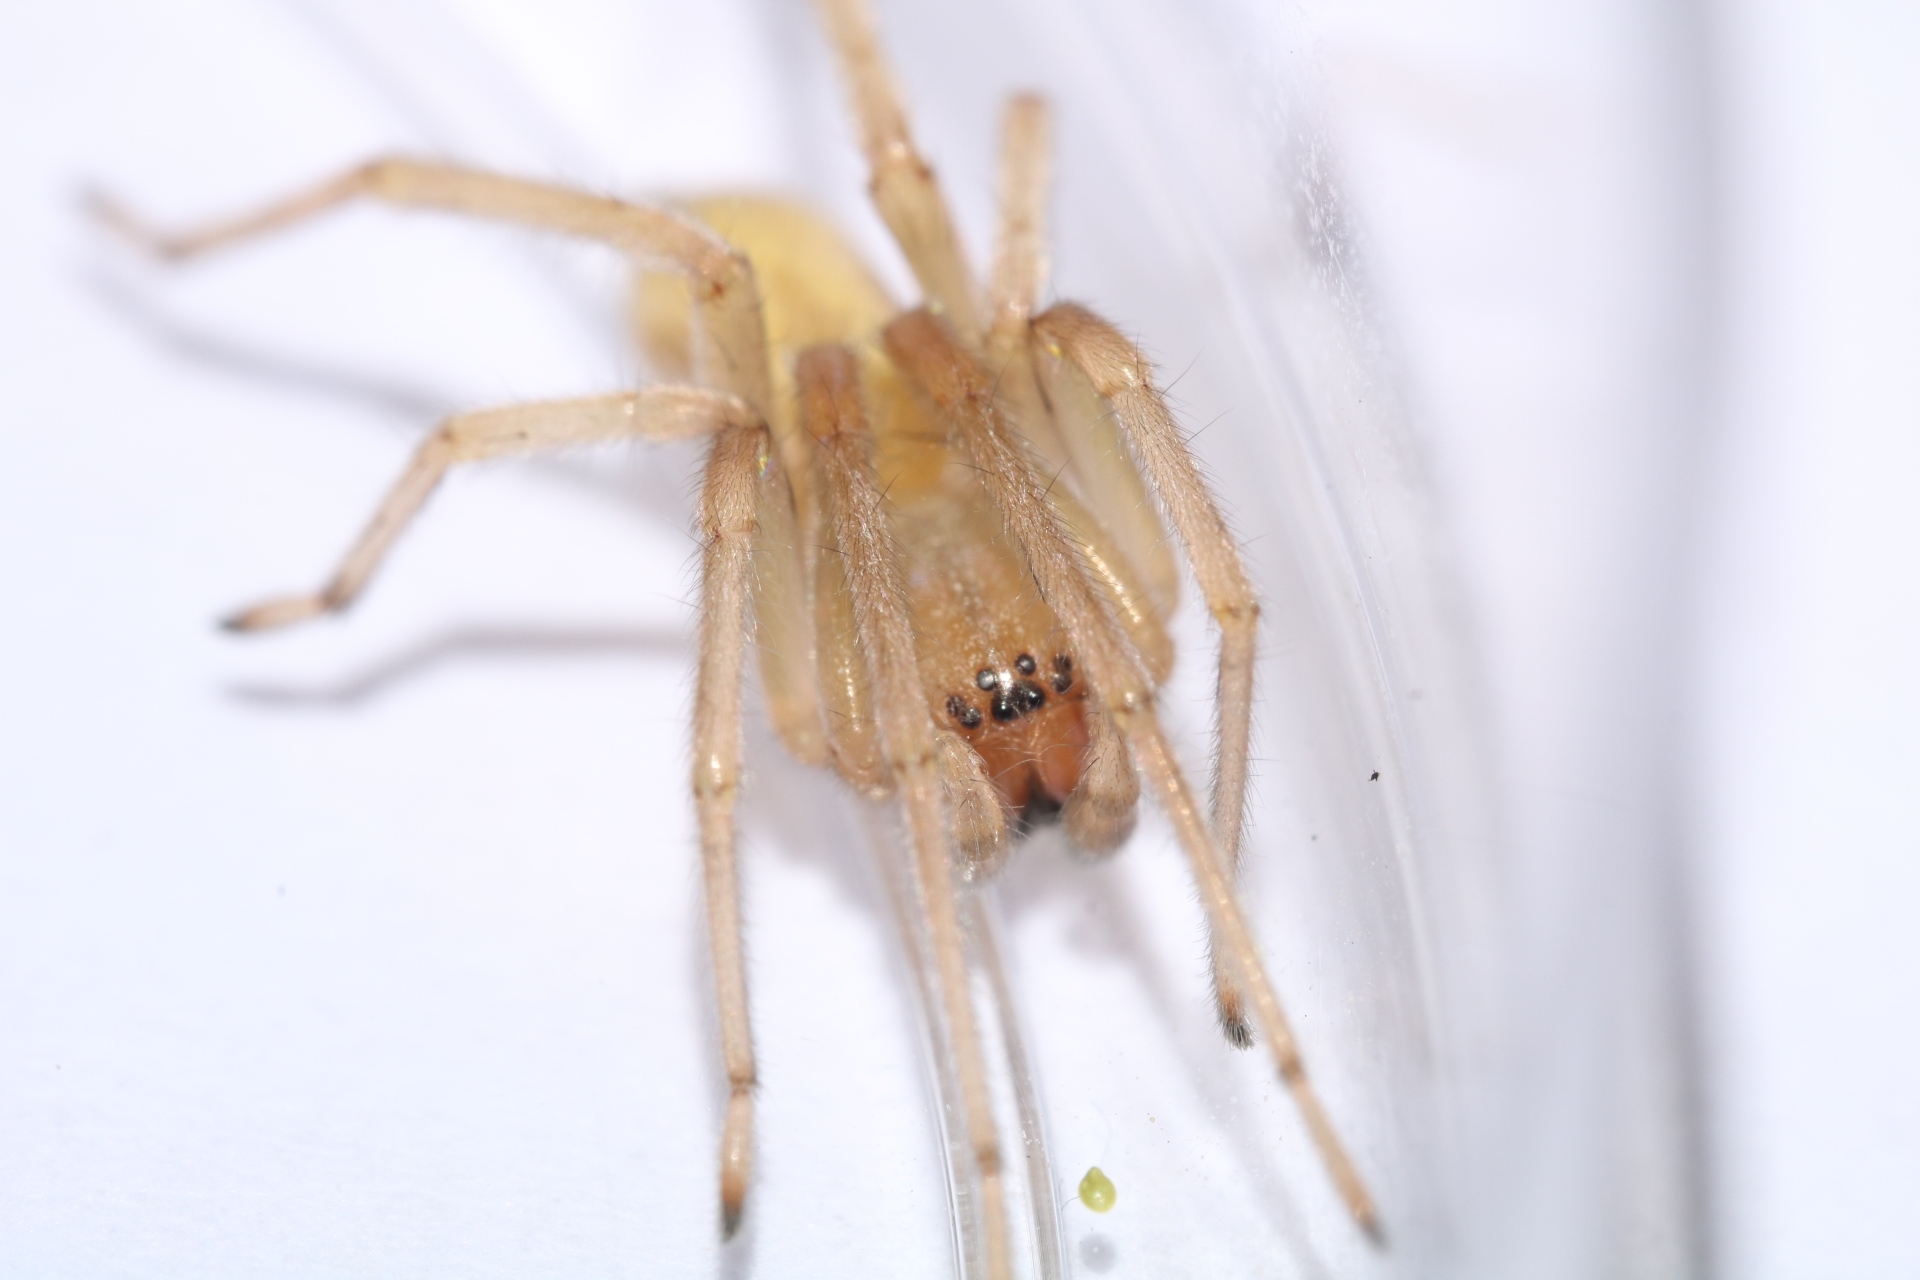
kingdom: Animalia
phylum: Arthropoda
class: Arachnida
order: Araneae
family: Cheiracanthiidae
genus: Cheiracanthium
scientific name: Cheiracanthium mildei
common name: Northern yellow sac spider
